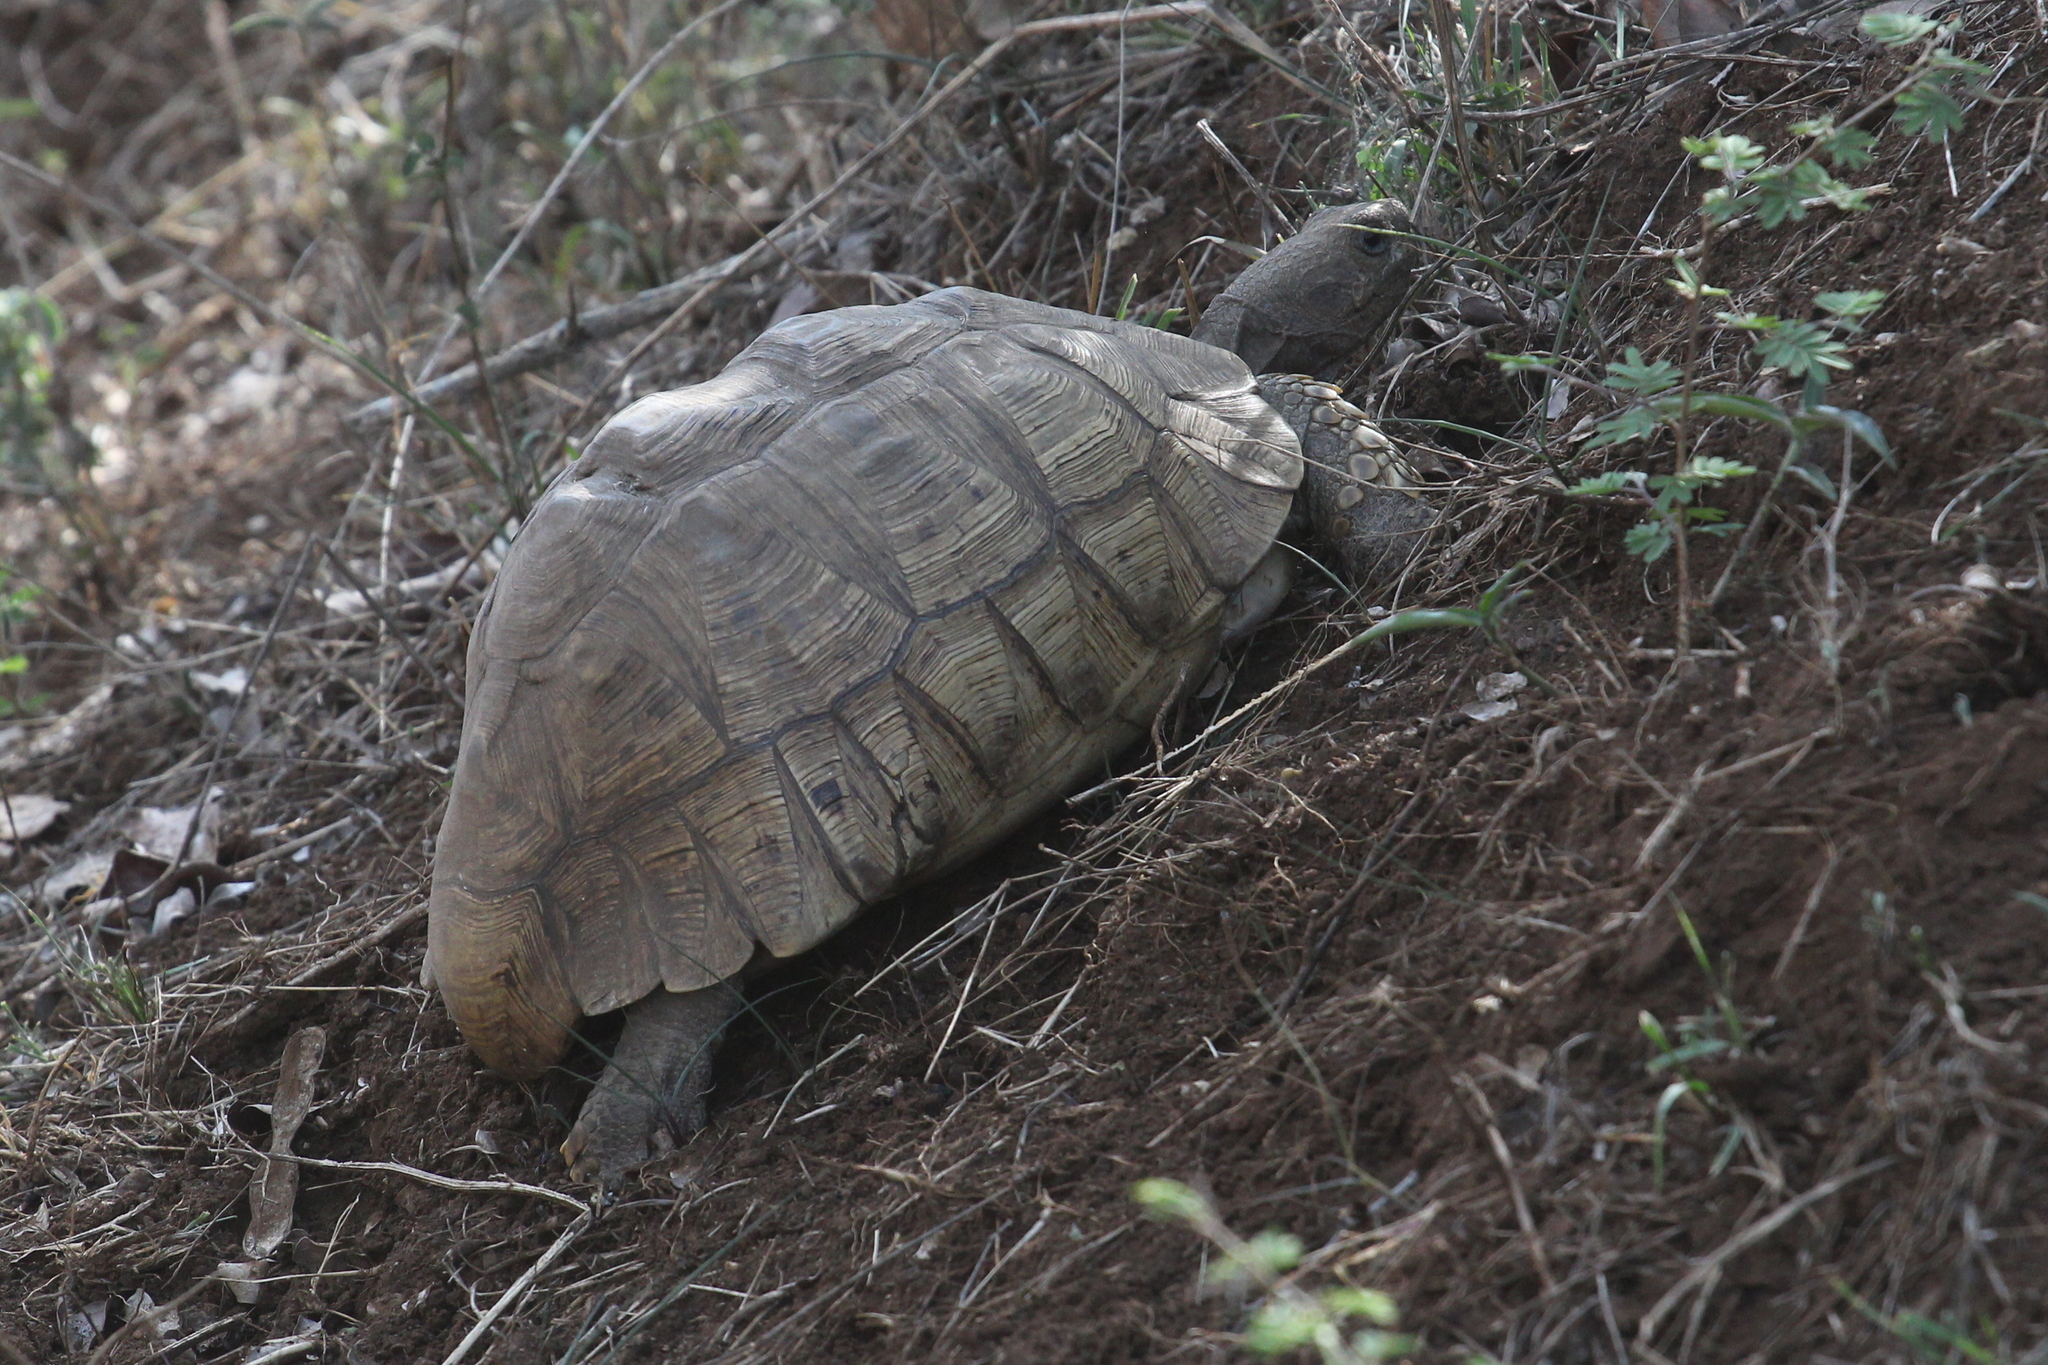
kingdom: Animalia
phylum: Chordata
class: Testudines
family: Testudinidae
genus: Stigmochelys
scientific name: Stigmochelys pardalis
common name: Leopard tortoise
